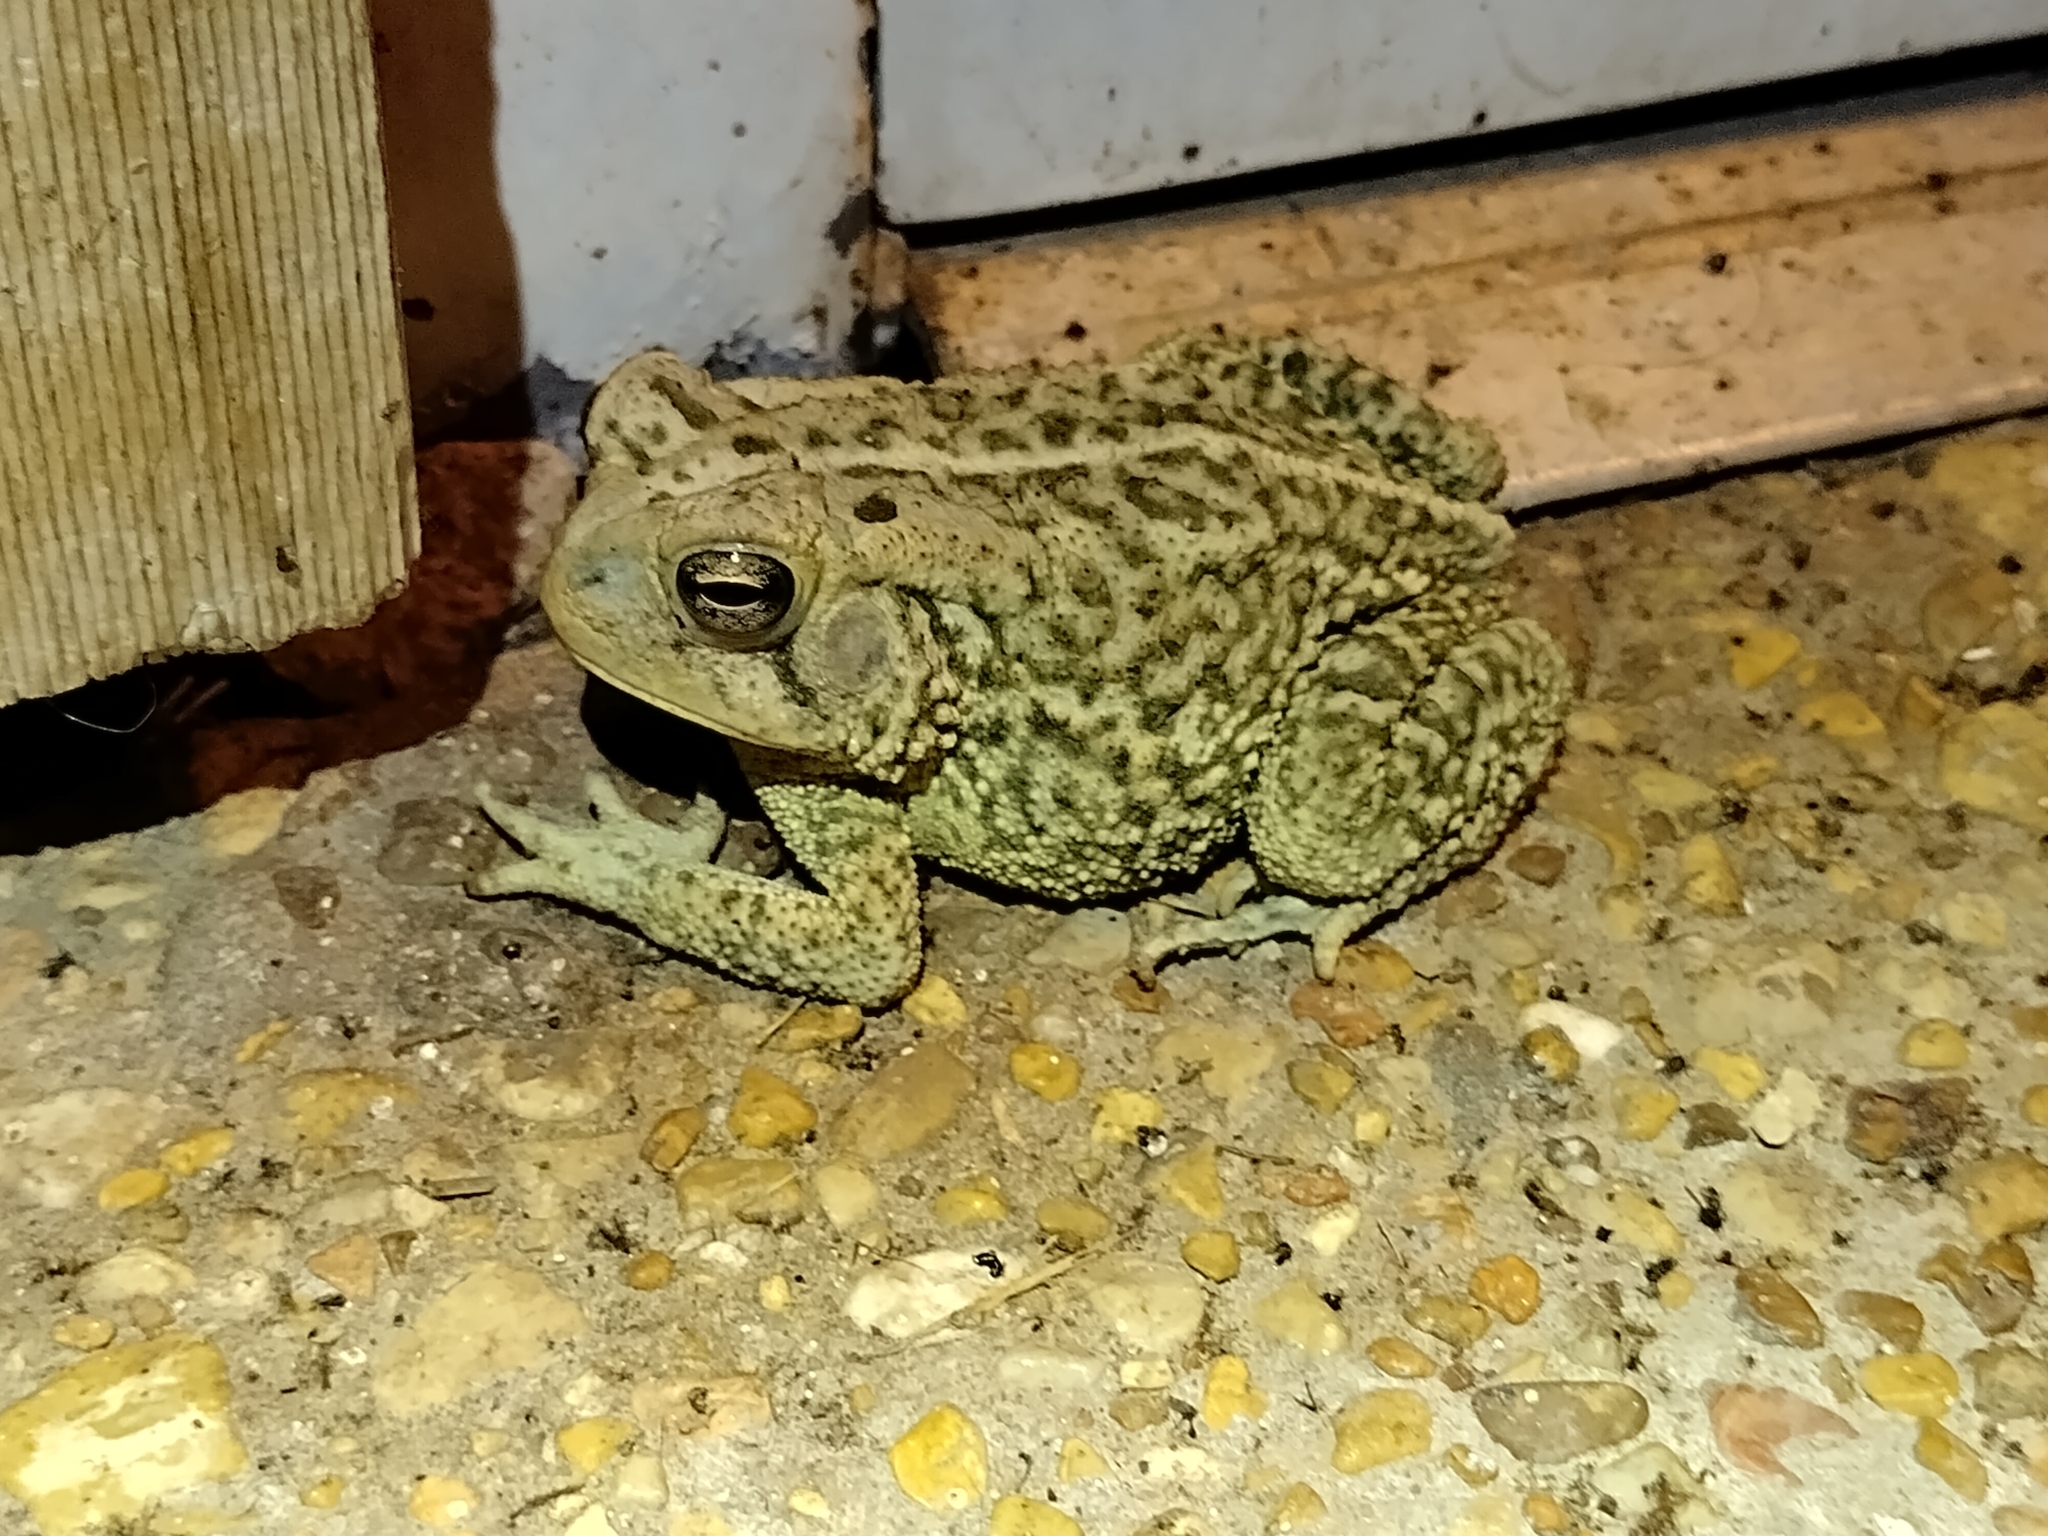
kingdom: Animalia
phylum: Chordata
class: Amphibia
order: Anura
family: Bufonidae
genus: Anaxyrus
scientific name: Anaxyrus
